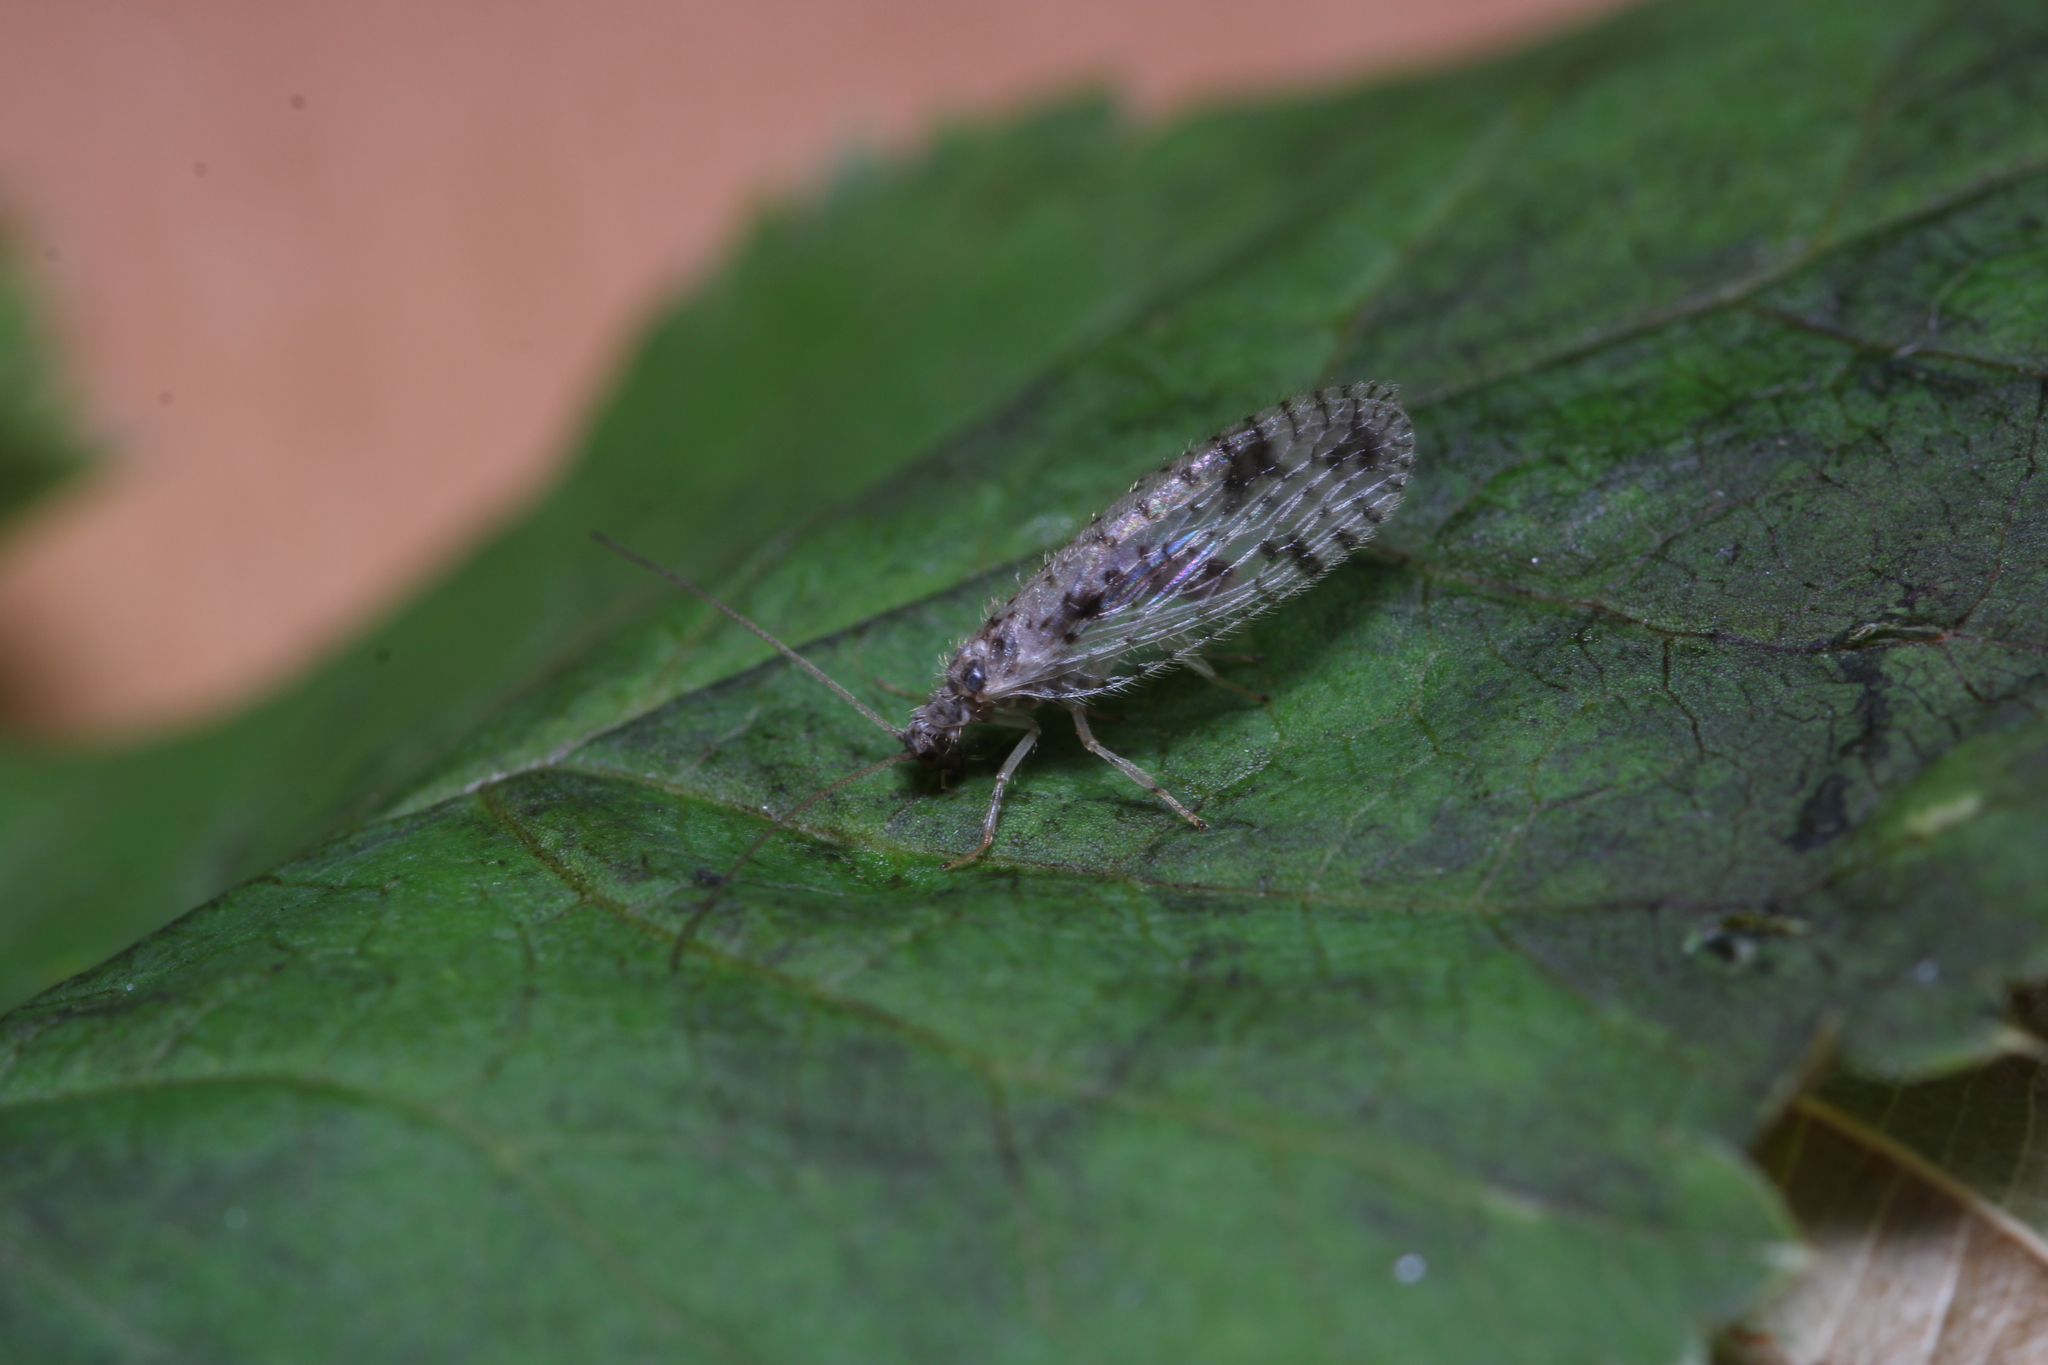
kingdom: Animalia
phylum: Arthropoda
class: Insecta
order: Neuroptera
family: Hemerobiidae
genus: Micromus
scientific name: Micromus variegatus
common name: Brown lacewing
